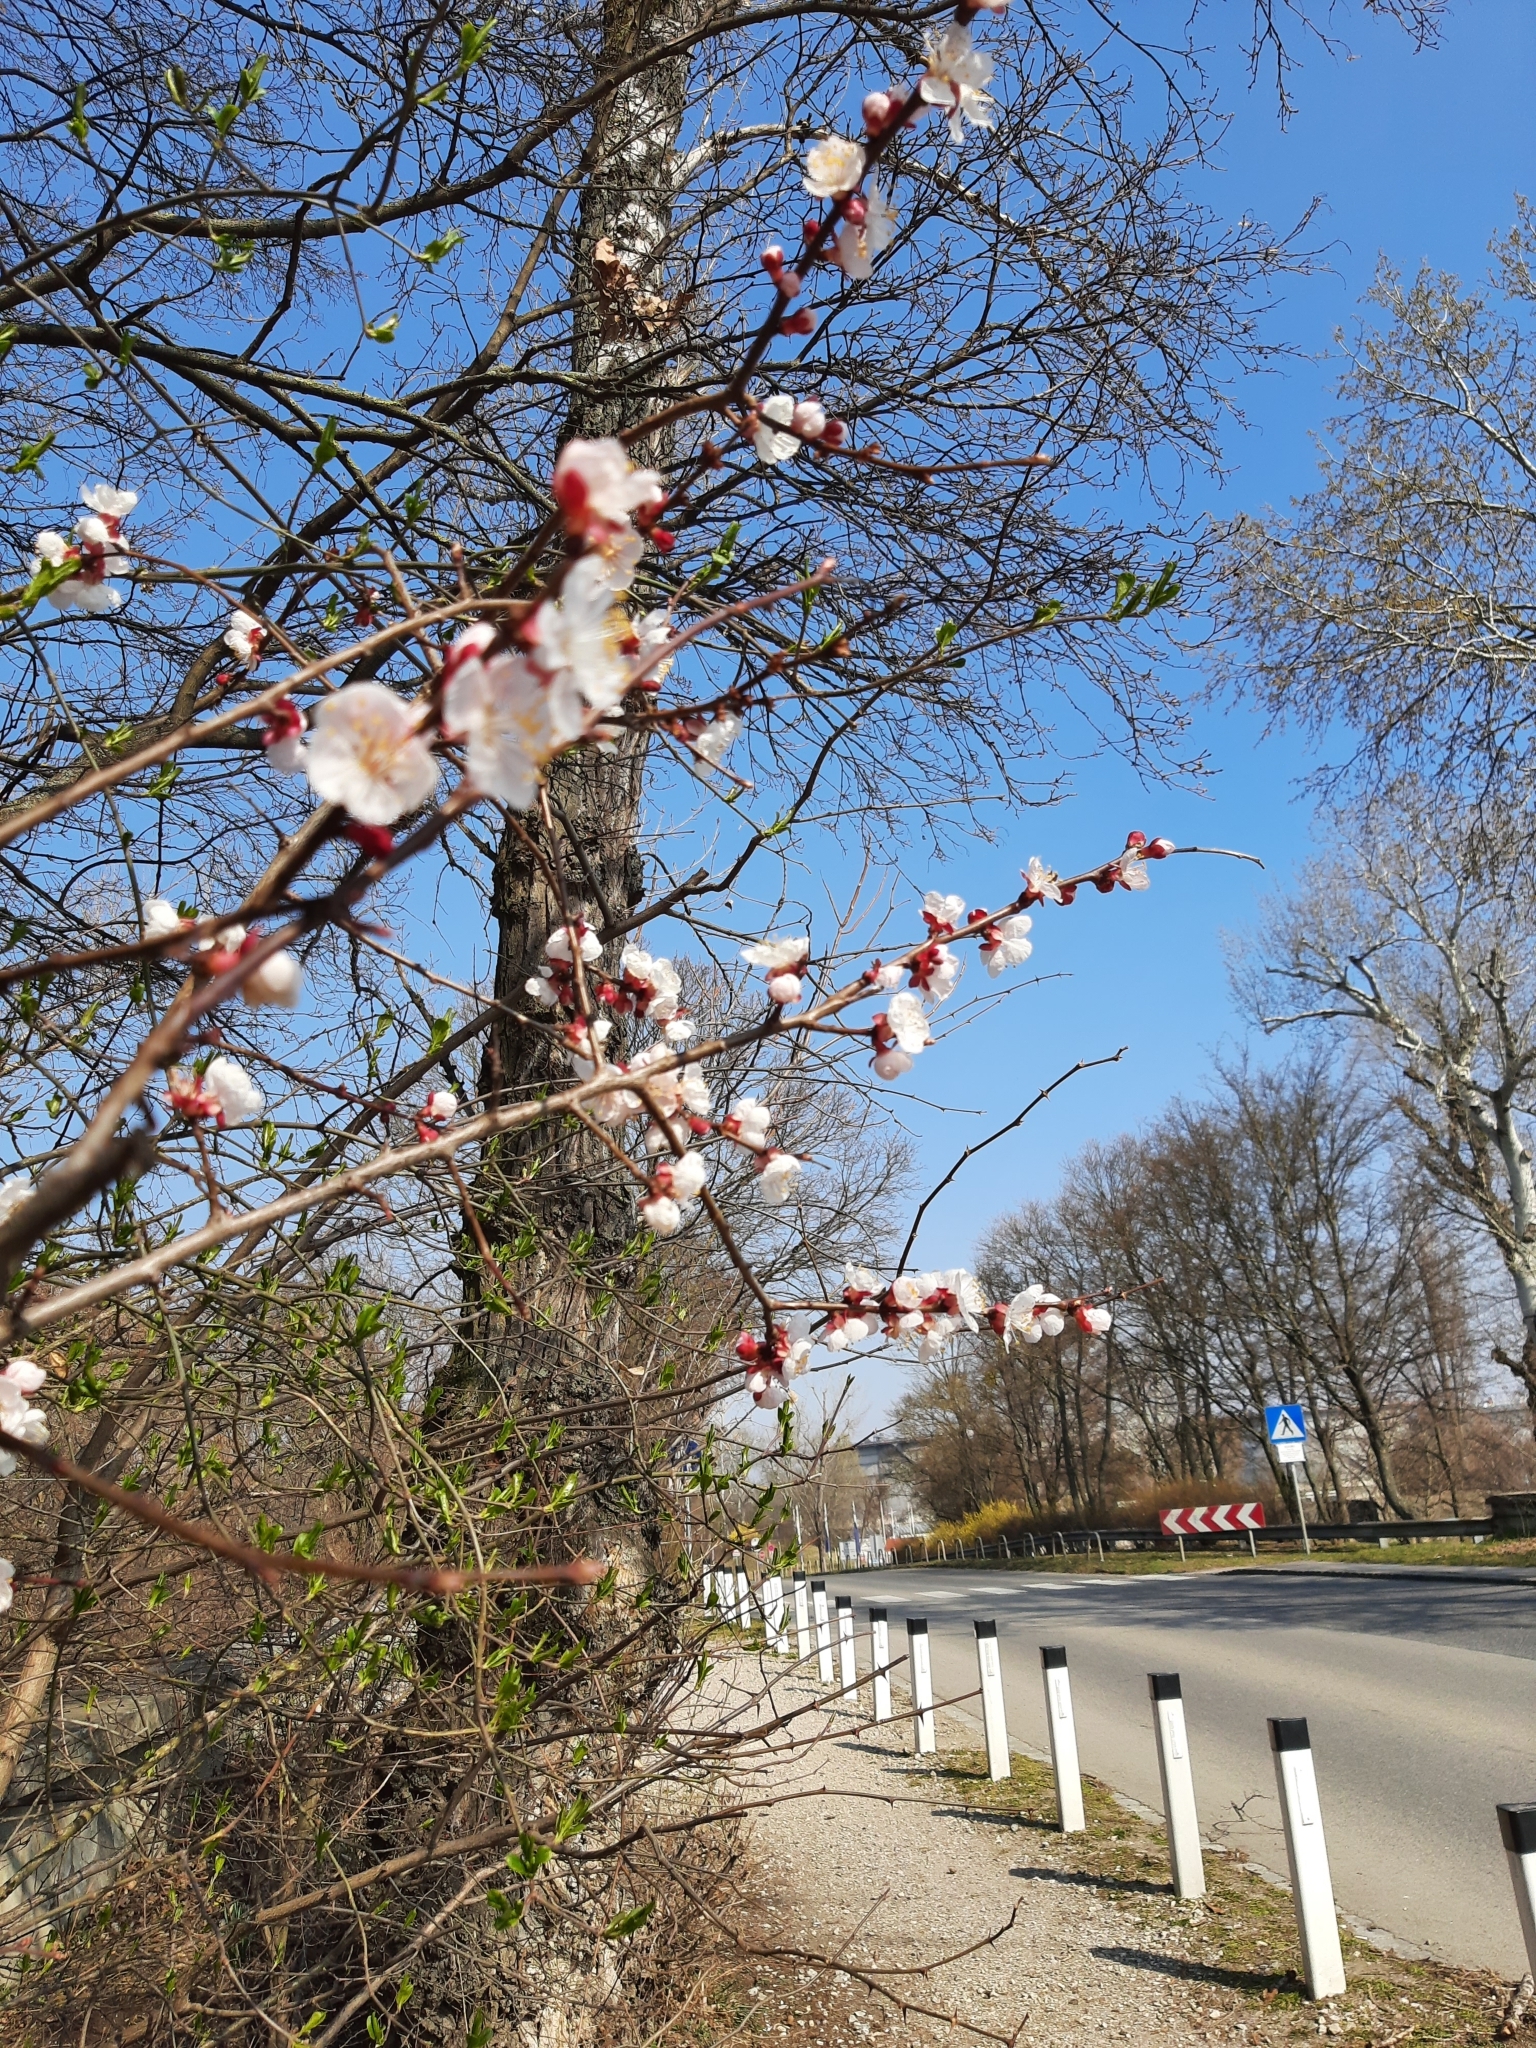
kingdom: Plantae
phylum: Tracheophyta
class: Magnoliopsida
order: Rosales
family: Rosaceae
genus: Prunus
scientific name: Prunus armeniaca
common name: Apricot
